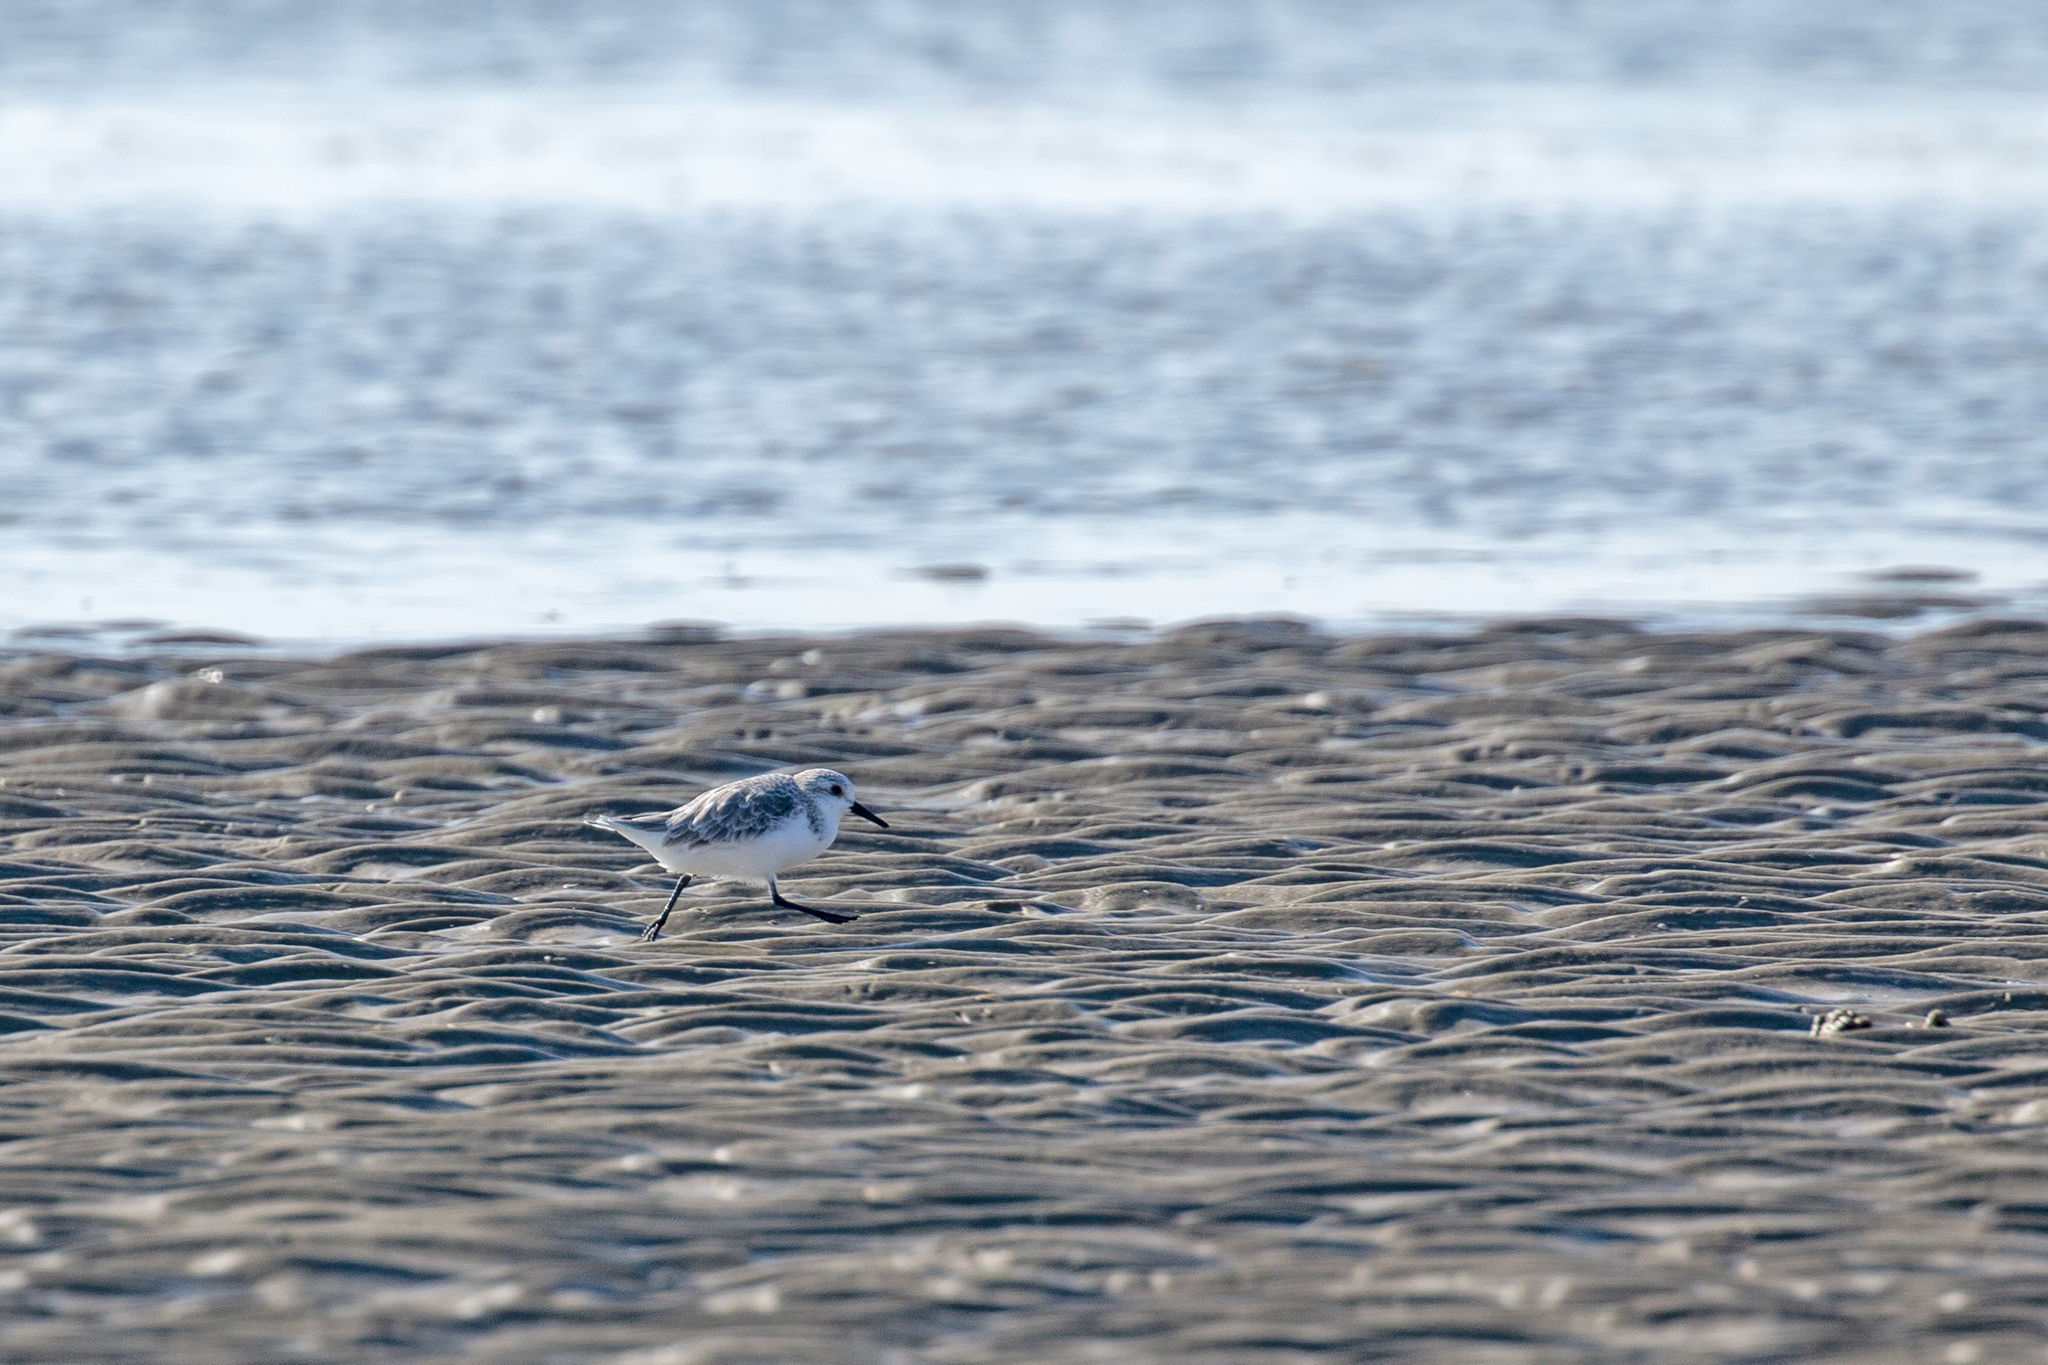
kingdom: Animalia
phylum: Chordata
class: Aves
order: Charadriiformes
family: Scolopacidae
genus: Calidris
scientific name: Calidris alba
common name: Sanderling
